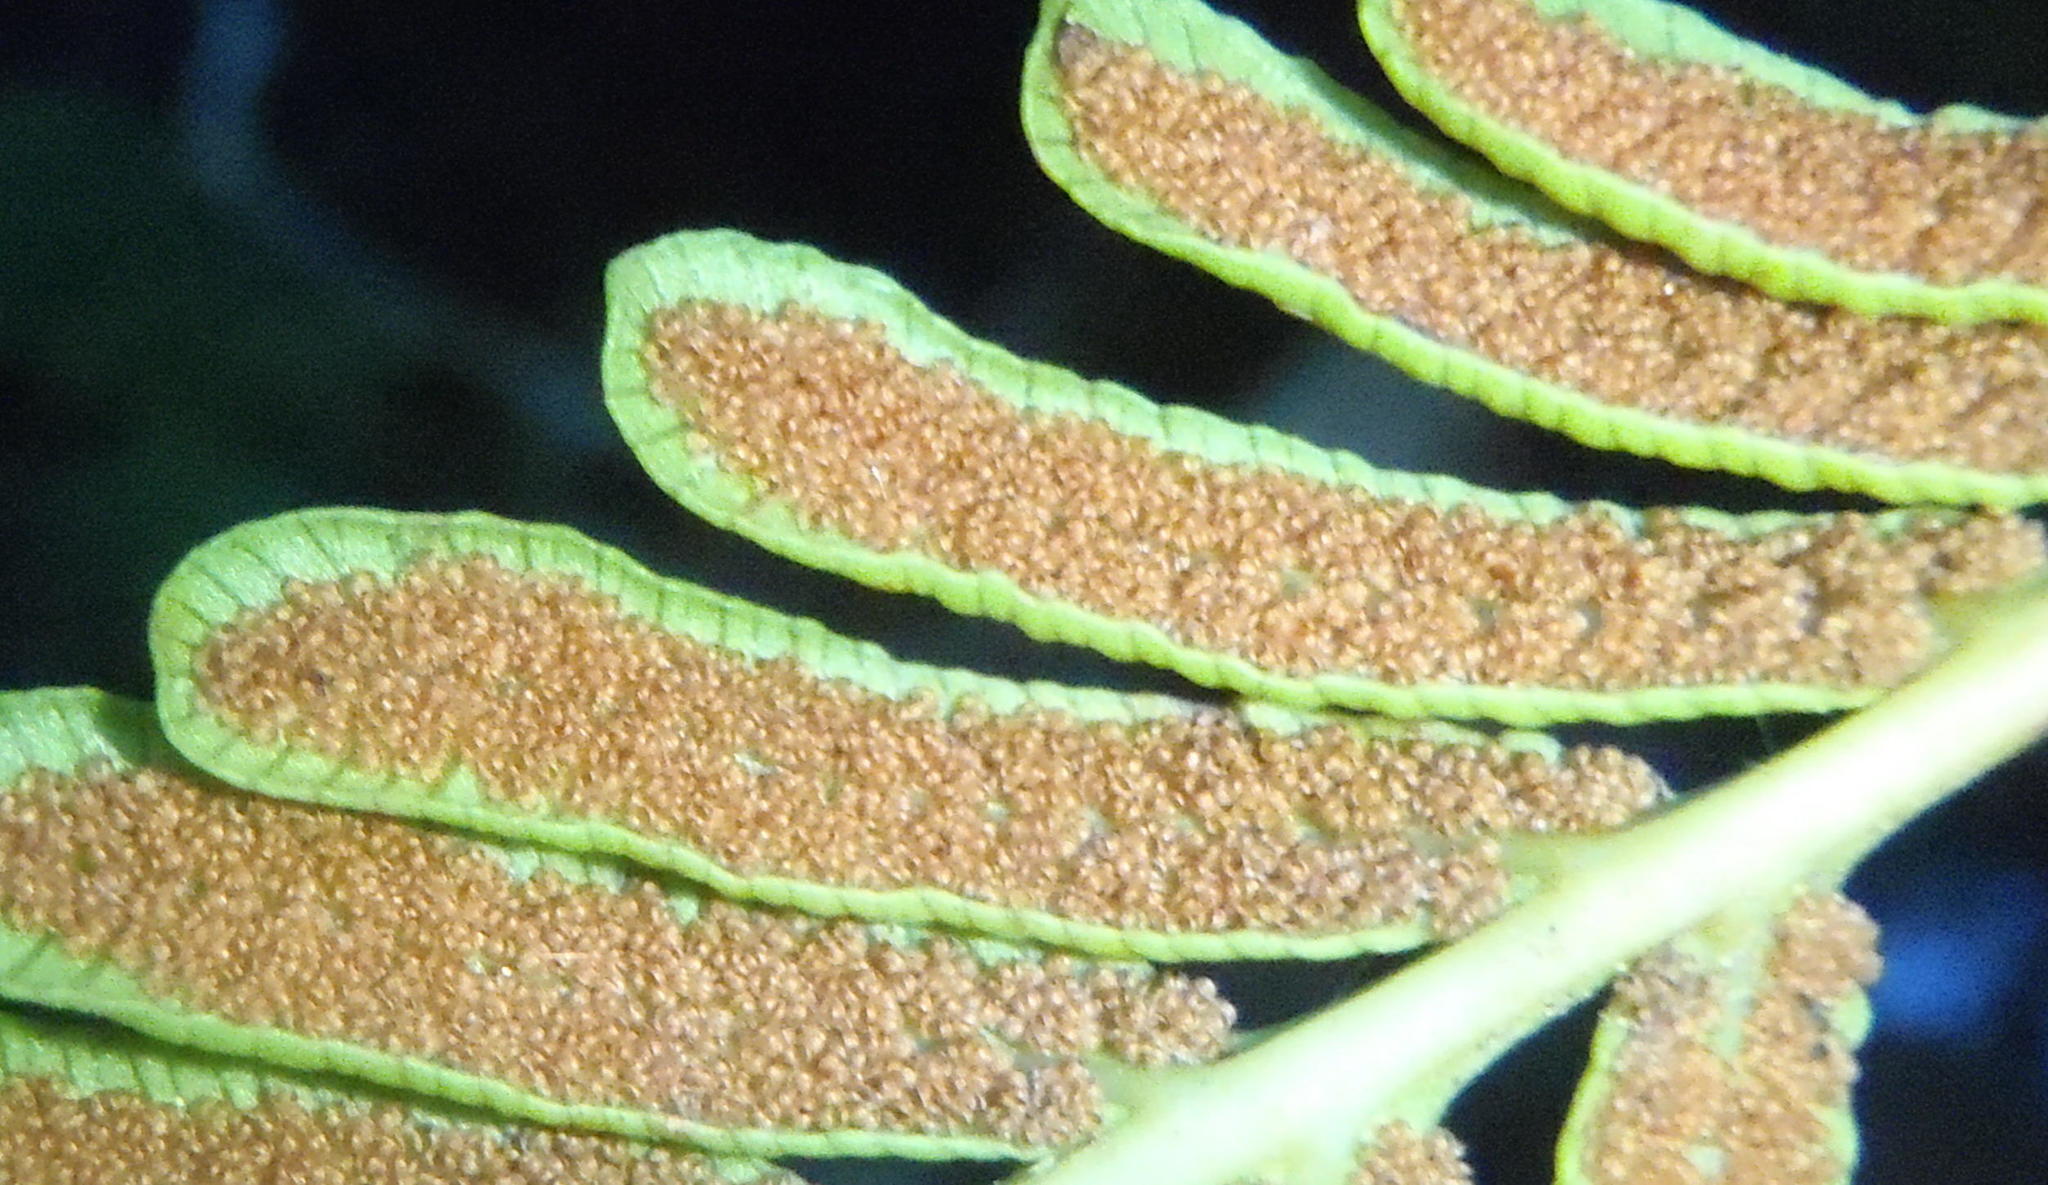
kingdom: Plantae
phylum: Tracheophyta
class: Polypodiopsida
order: Osmundales
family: Osmundaceae
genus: Todea
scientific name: Todea barbara
